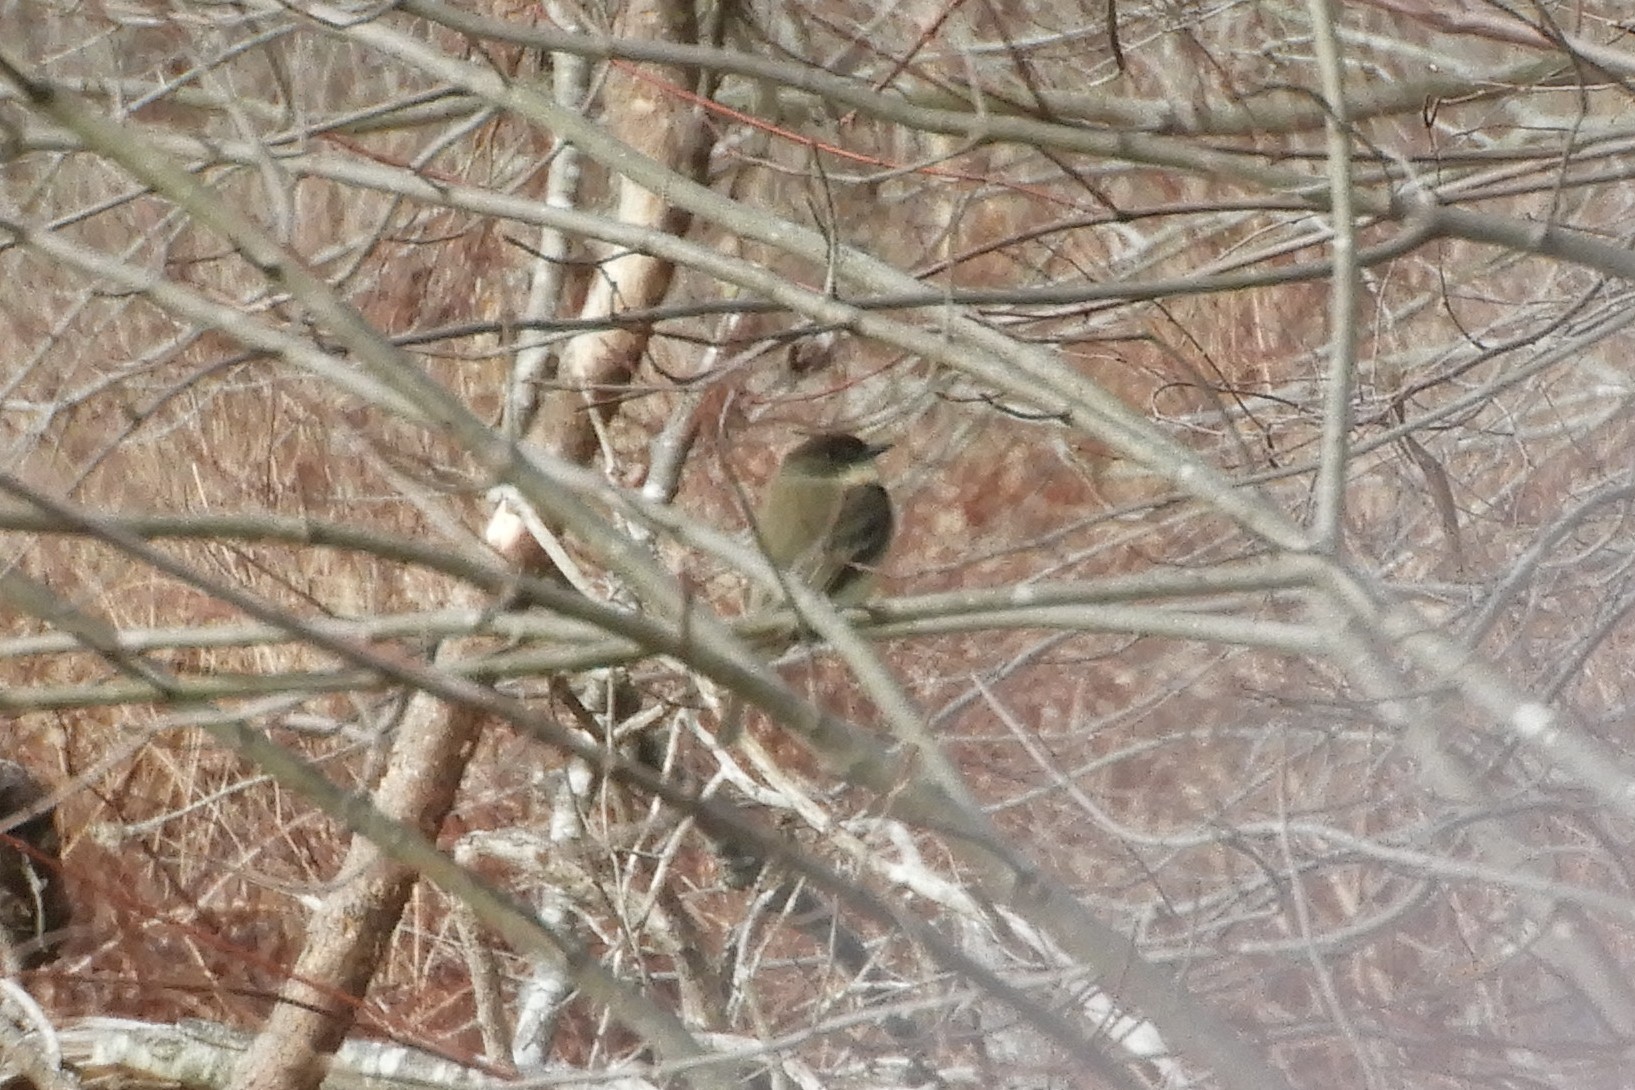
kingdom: Animalia
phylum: Chordata
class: Aves
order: Passeriformes
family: Tyrannidae
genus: Sayornis
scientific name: Sayornis phoebe
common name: Eastern phoebe
